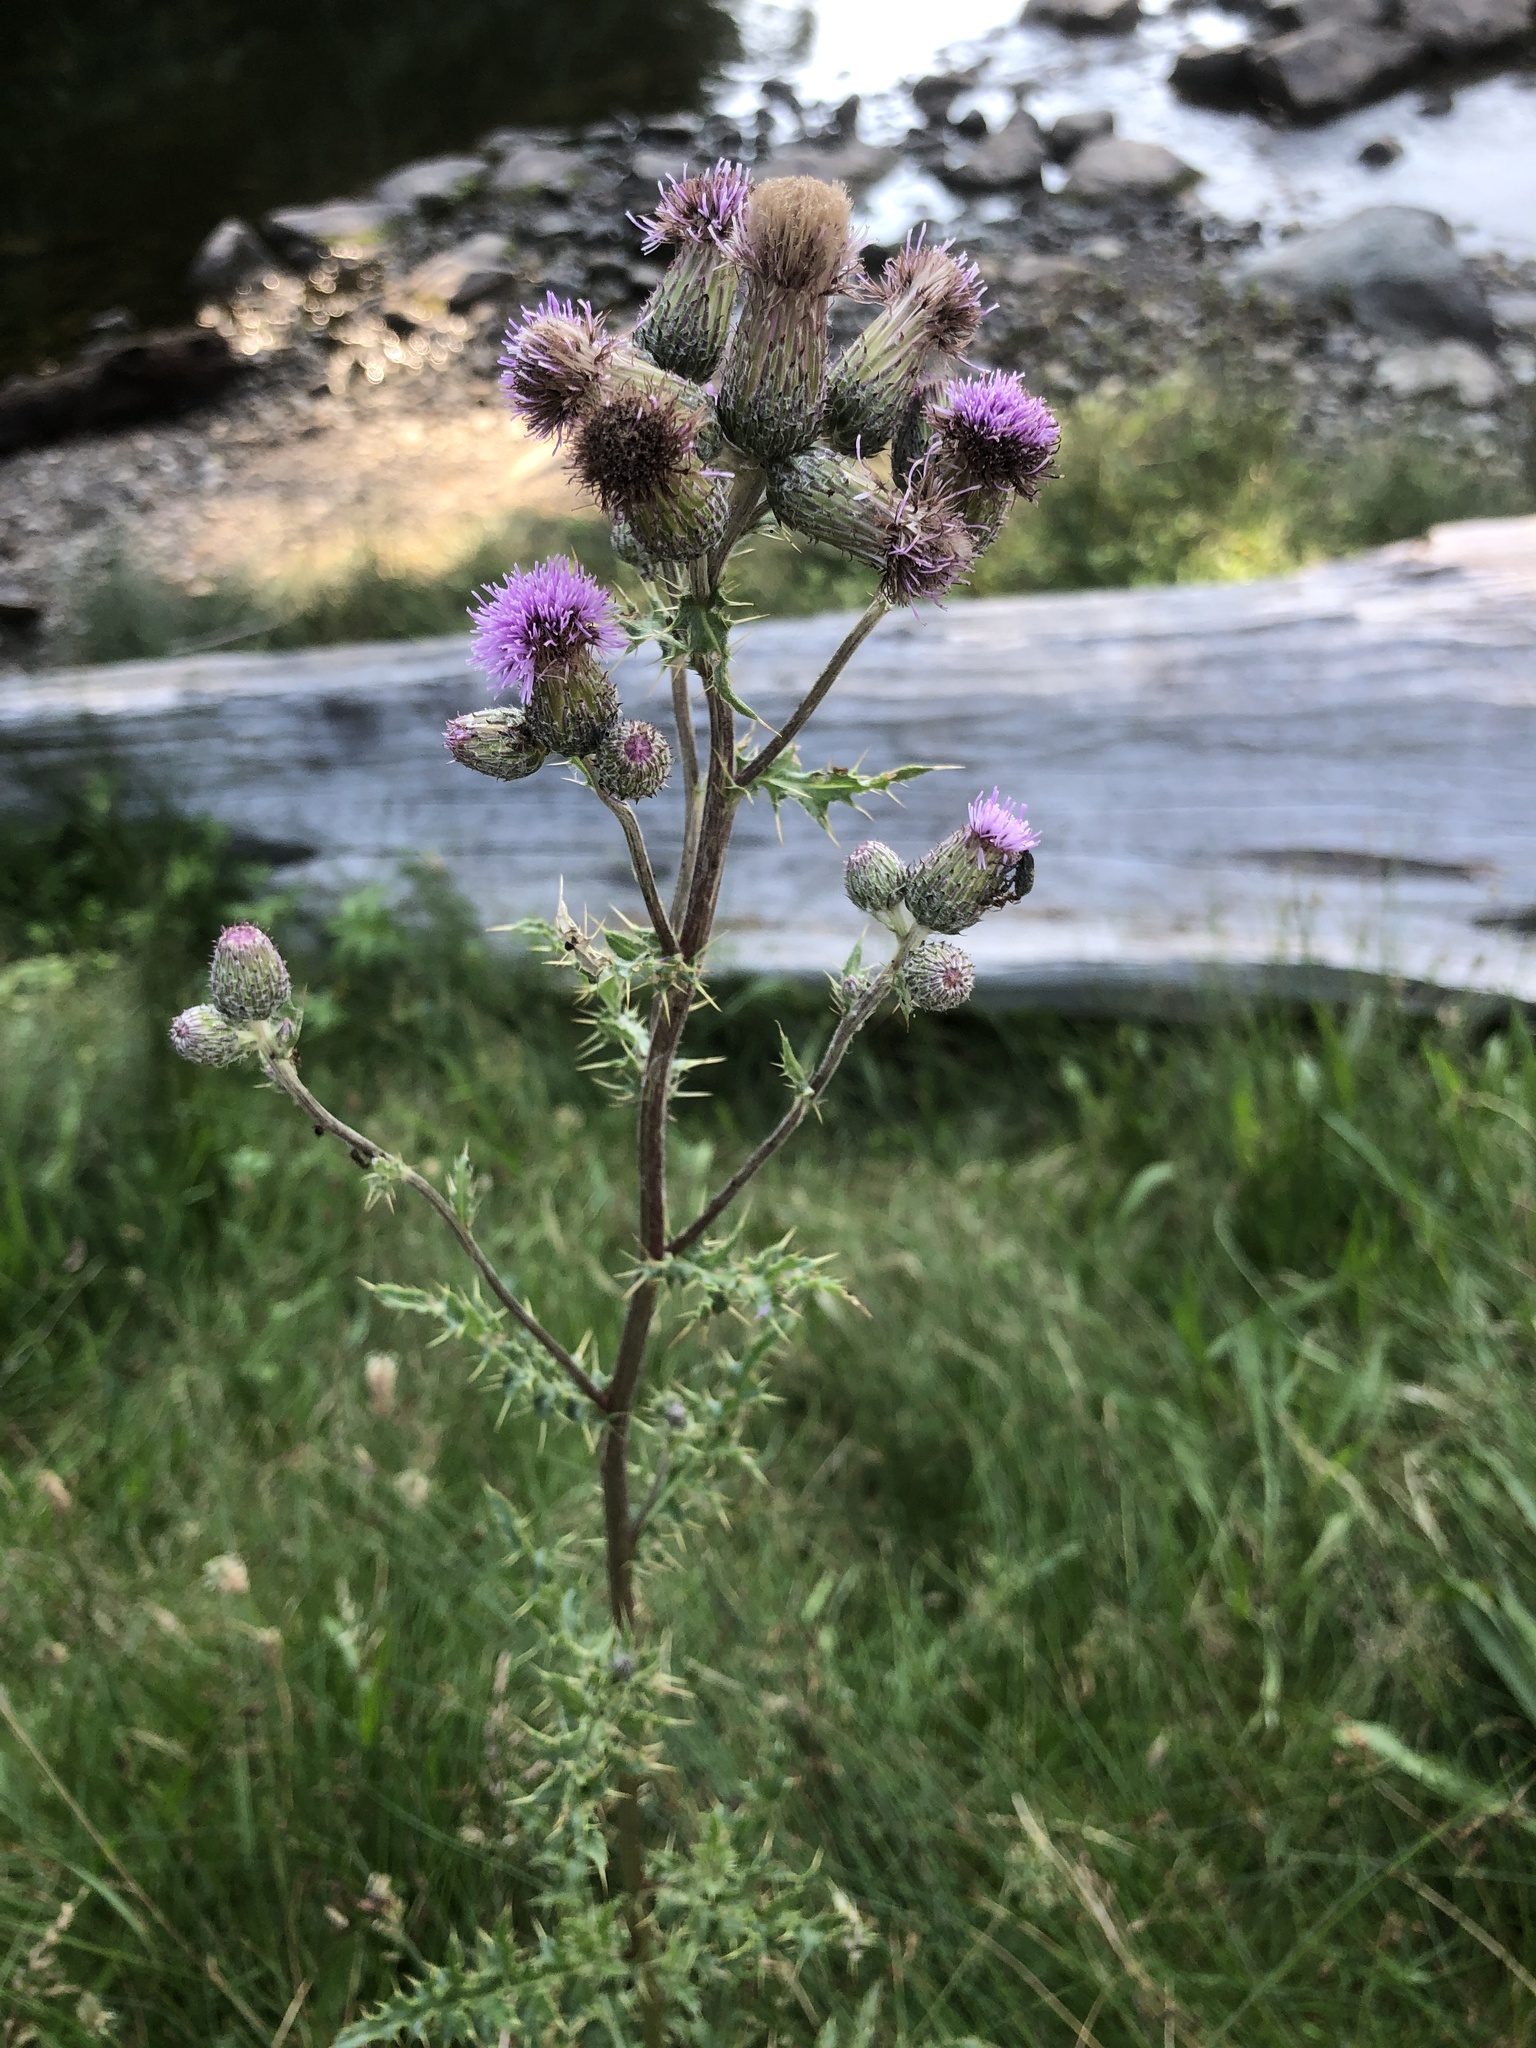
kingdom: Plantae
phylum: Tracheophyta
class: Magnoliopsida
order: Asterales
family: Asteraceae
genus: Cirsium
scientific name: Cirsium arvense
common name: Creeping thistle
